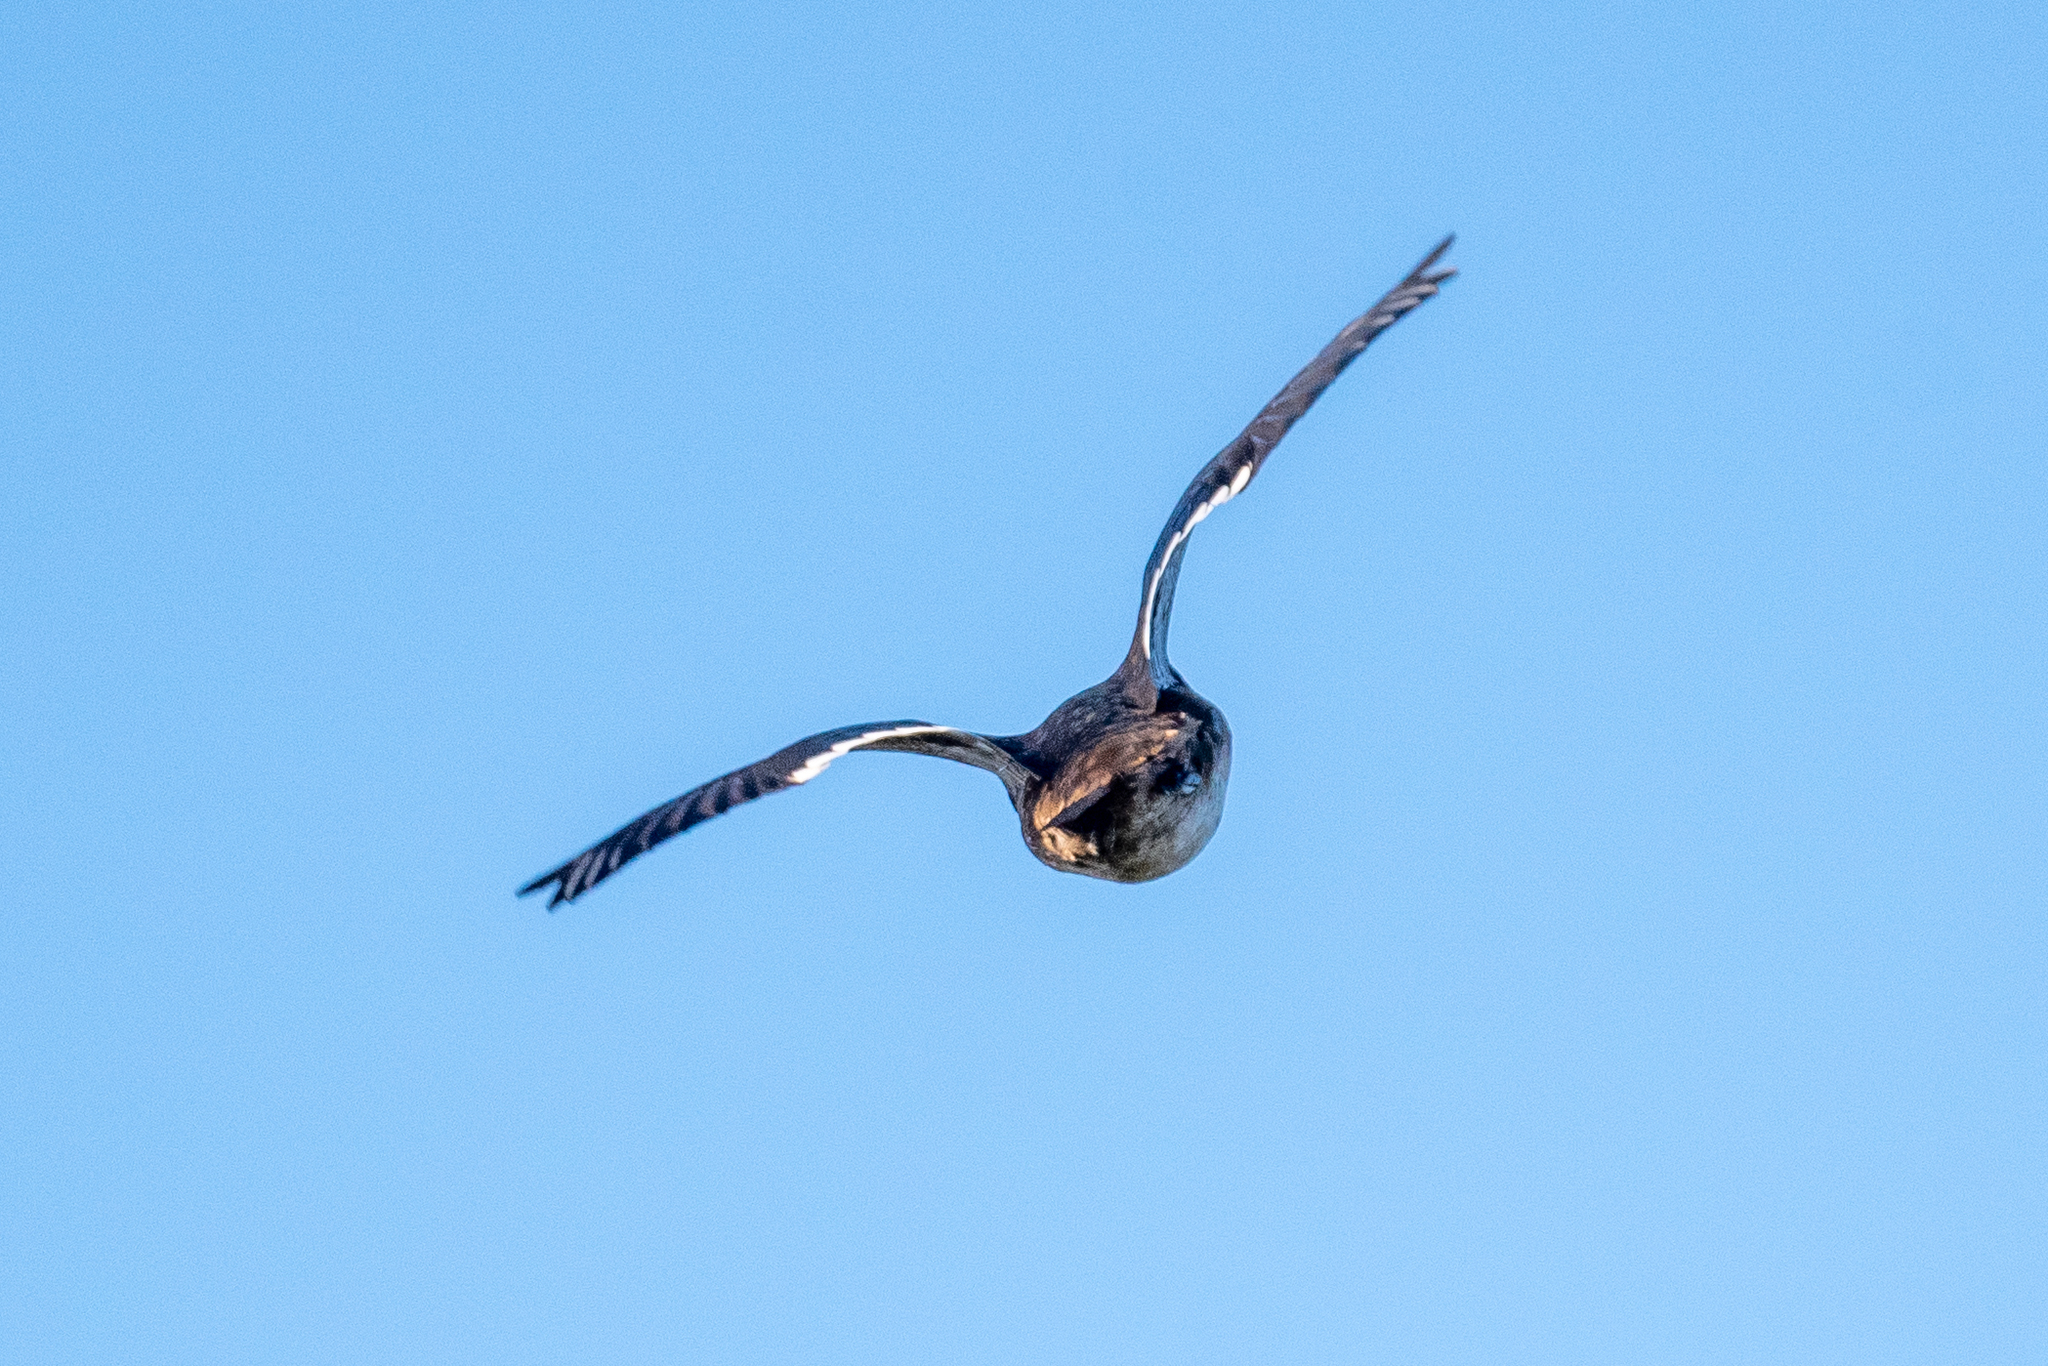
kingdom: Animalia
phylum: Chordata
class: Aves
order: Anseriformes
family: Anatidae
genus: Aix
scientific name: Aix sponsa
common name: Wood duck
